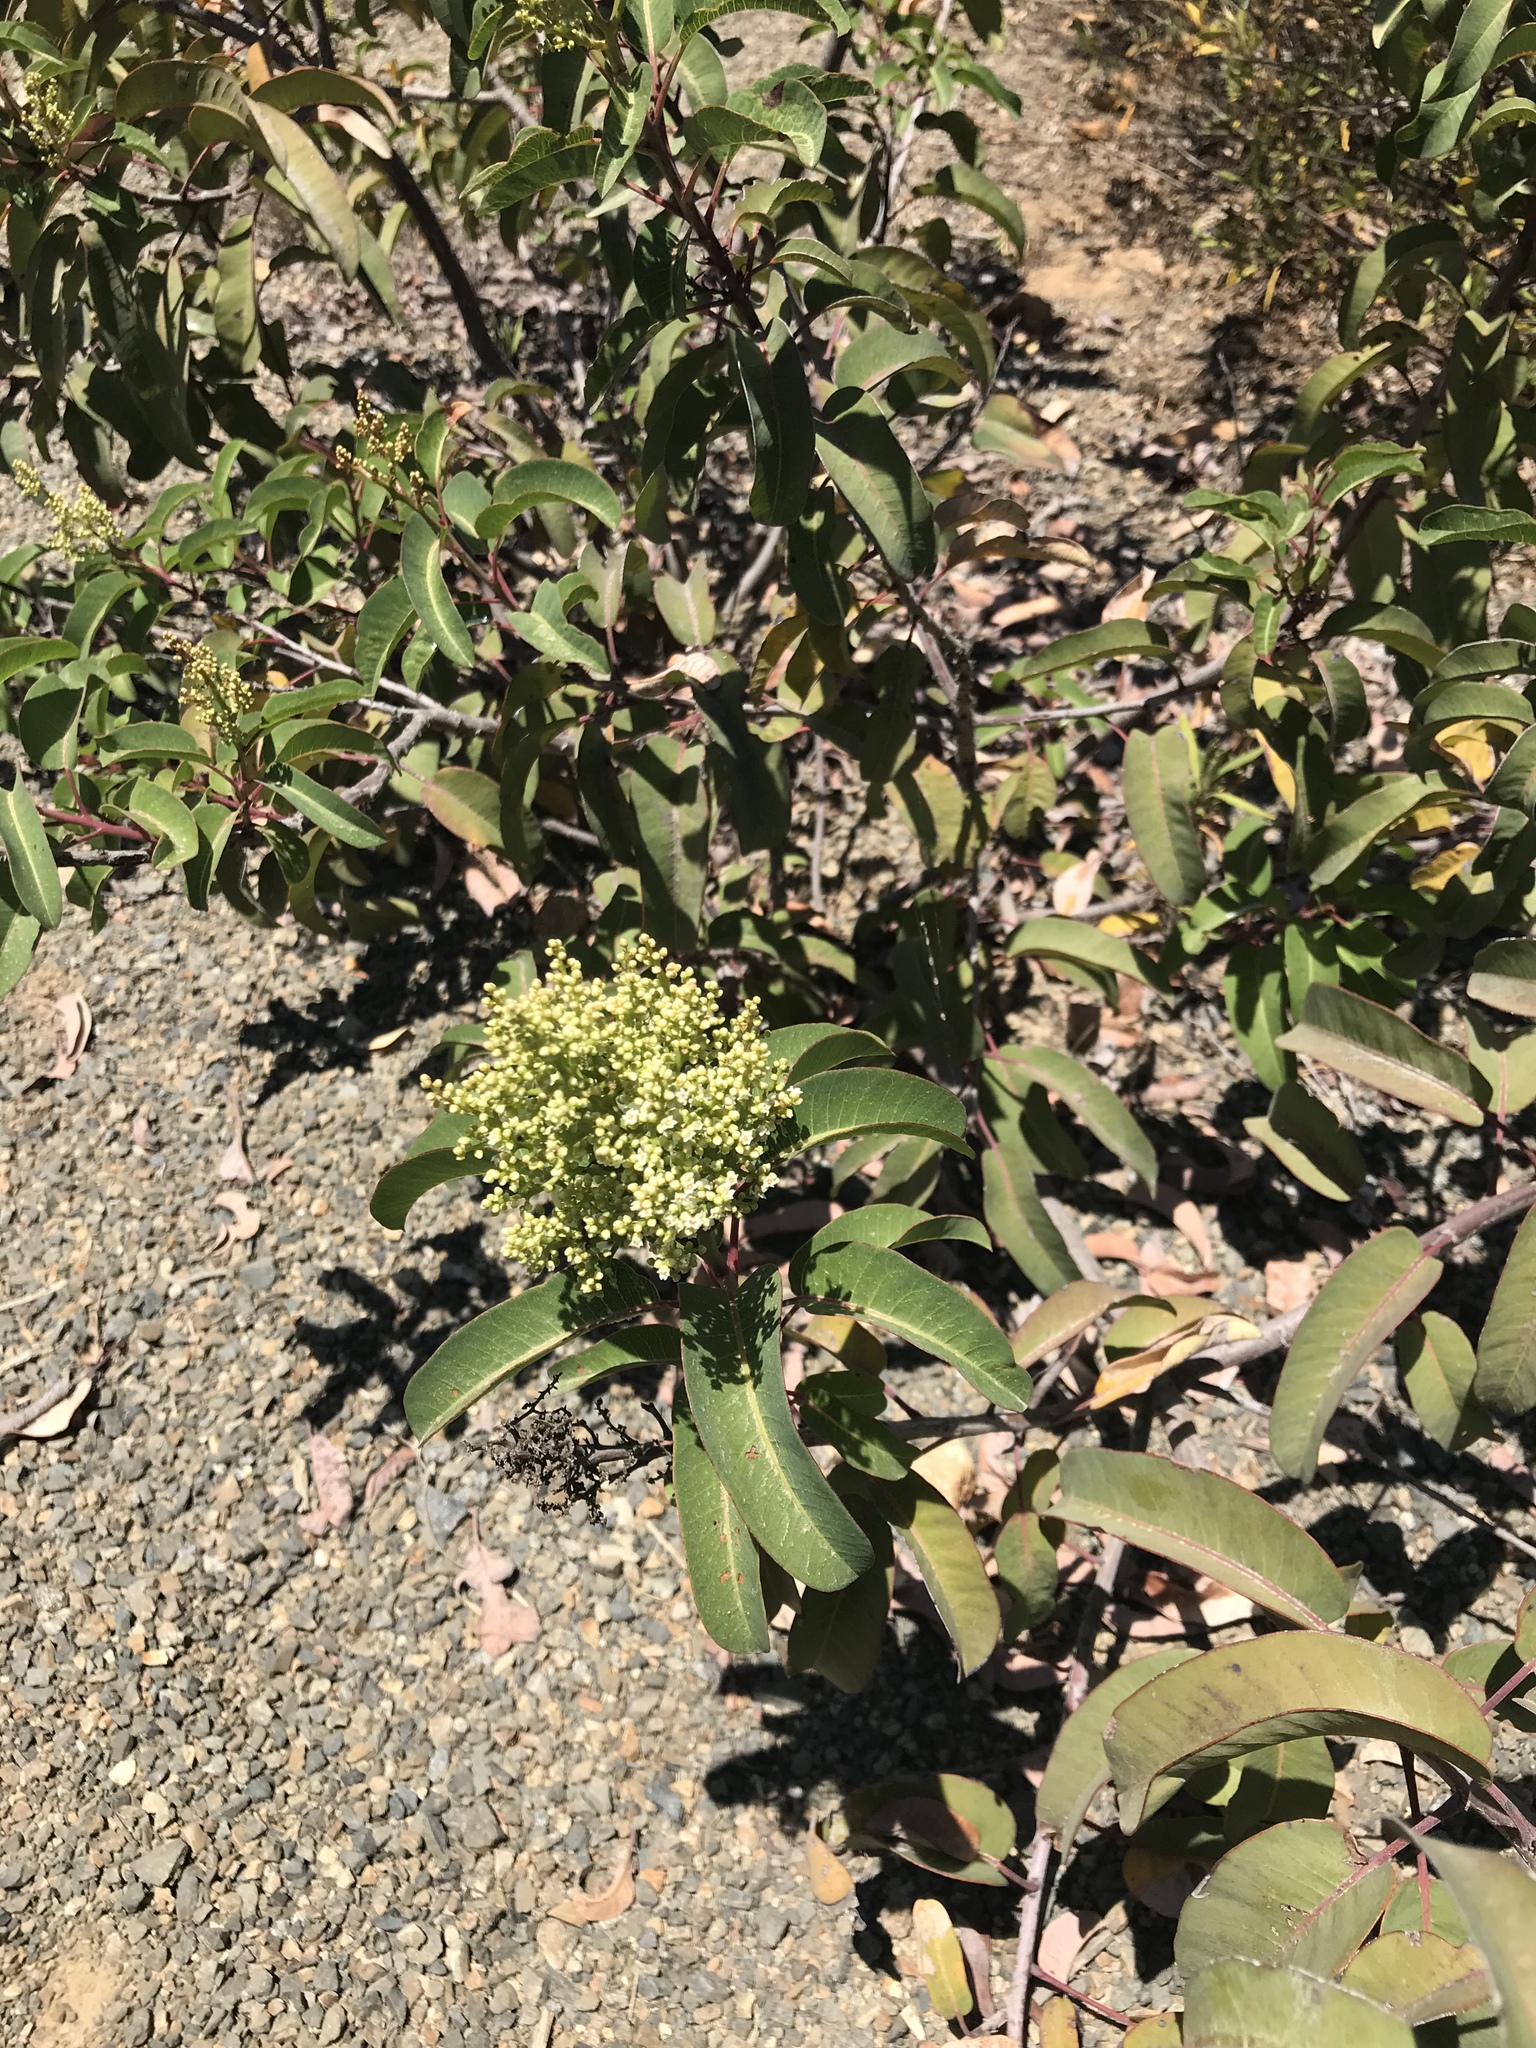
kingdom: Plantae
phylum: Tracheophyta
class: Magnoliopsida
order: Sapindales
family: Anacardiaceae
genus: Malosma
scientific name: Malosma laurina
